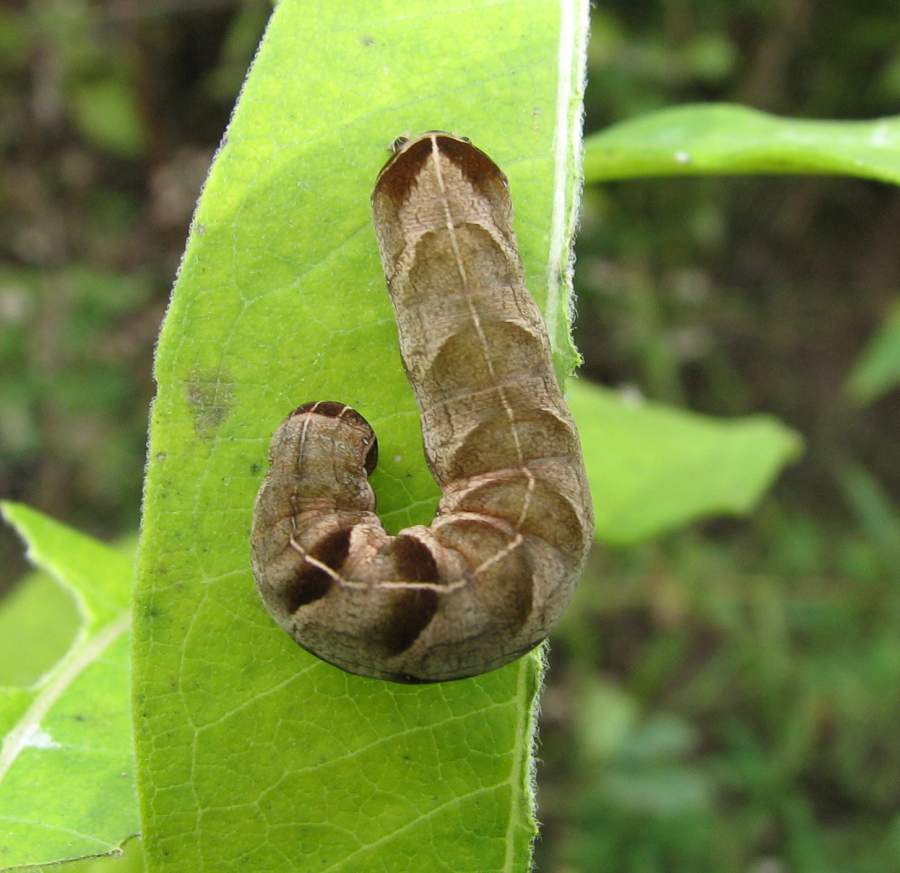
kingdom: Animalia
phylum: Arthropoda
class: Insecta
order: Lepidoptera
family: Noctuidae
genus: Melanchra
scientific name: Melanchra adjuncta
